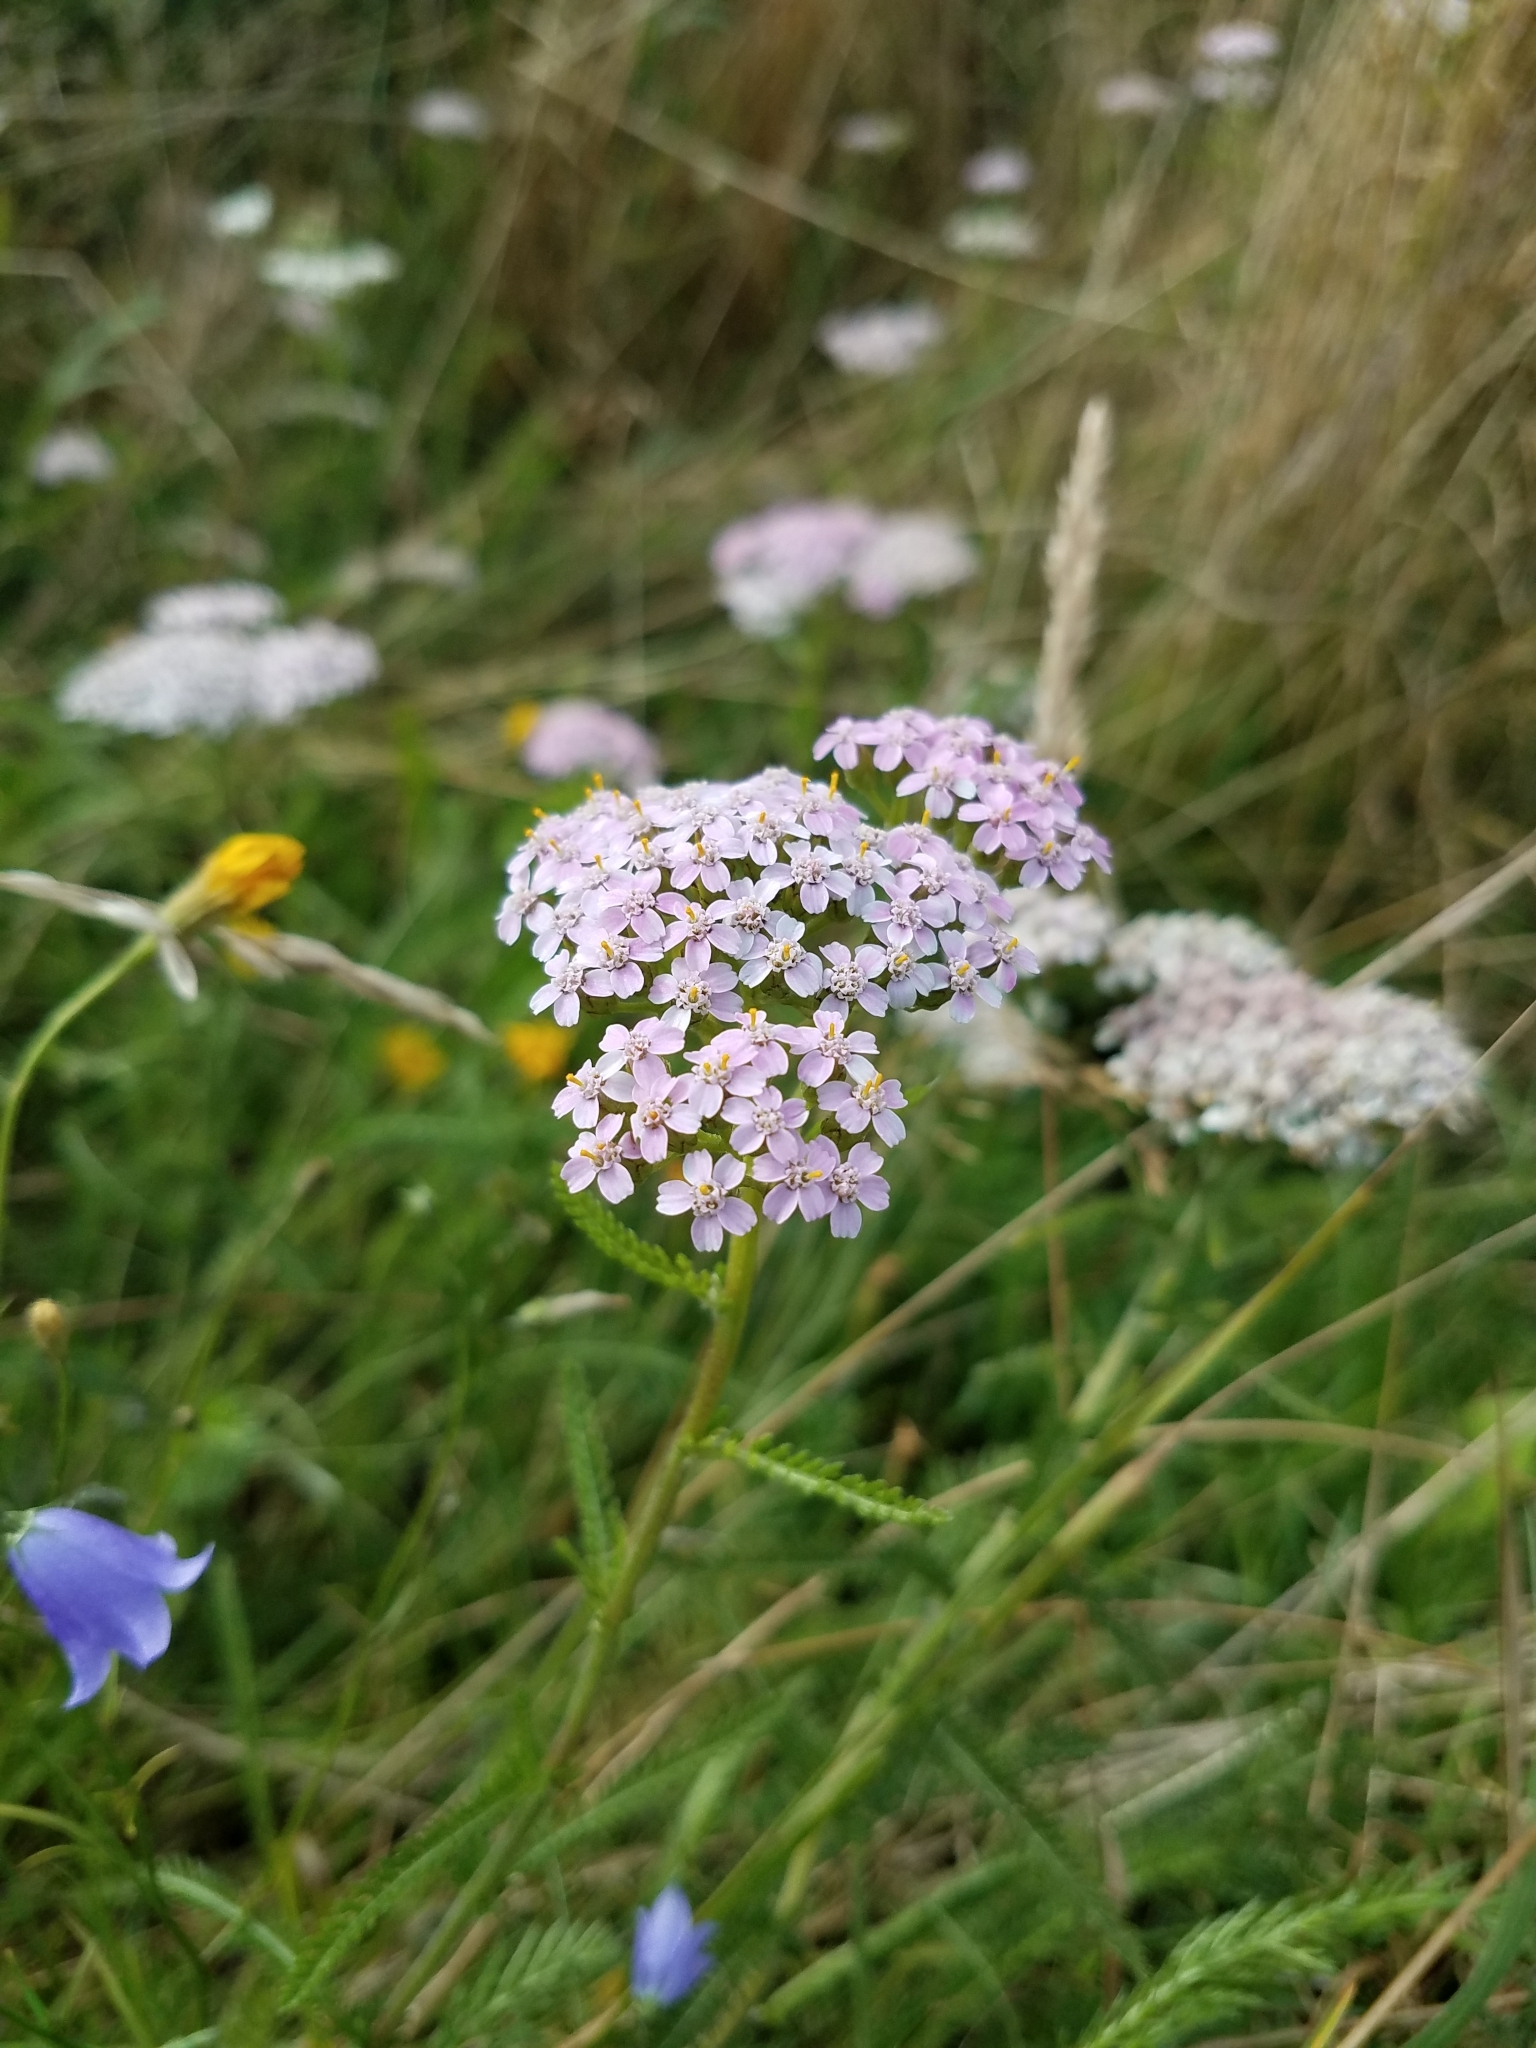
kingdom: Plantae
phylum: Tracheophyta
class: Magnoliopsida
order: Asterales
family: Asteraceae
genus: Achillea
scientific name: Achillea millefolium
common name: Yarrow
